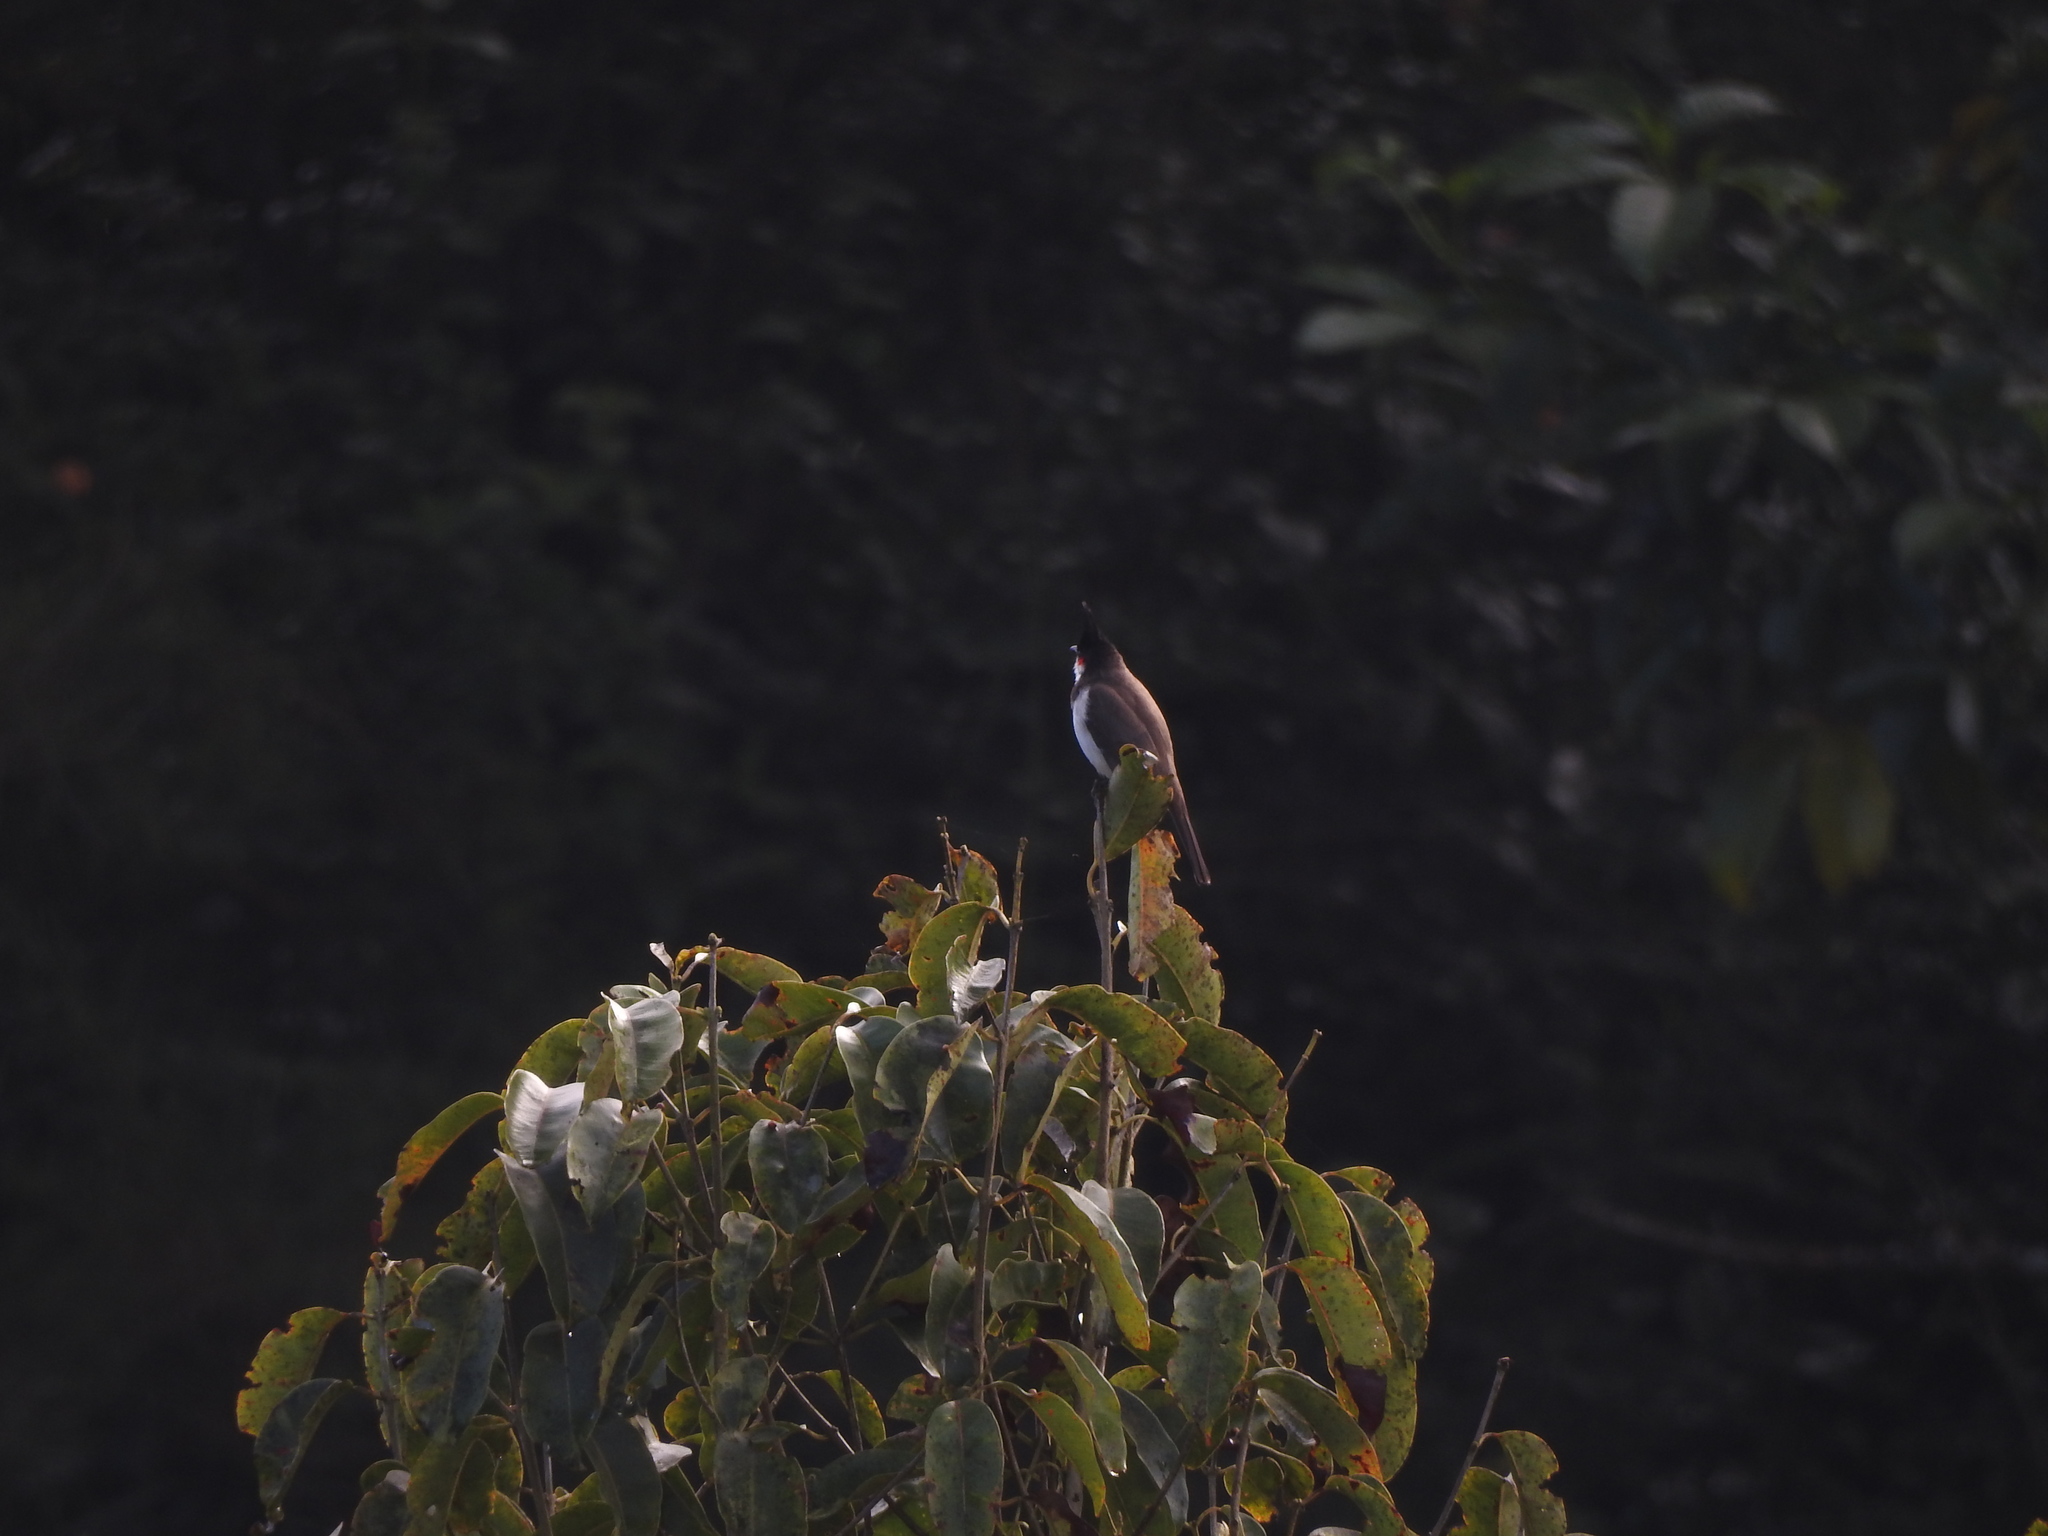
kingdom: Animalia
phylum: Chordata
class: Aves
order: Passeriformes
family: Pycnonotidae
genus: Pycnonotus
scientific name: Pycnonotus jocosus
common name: Red-whiskered bulbul
